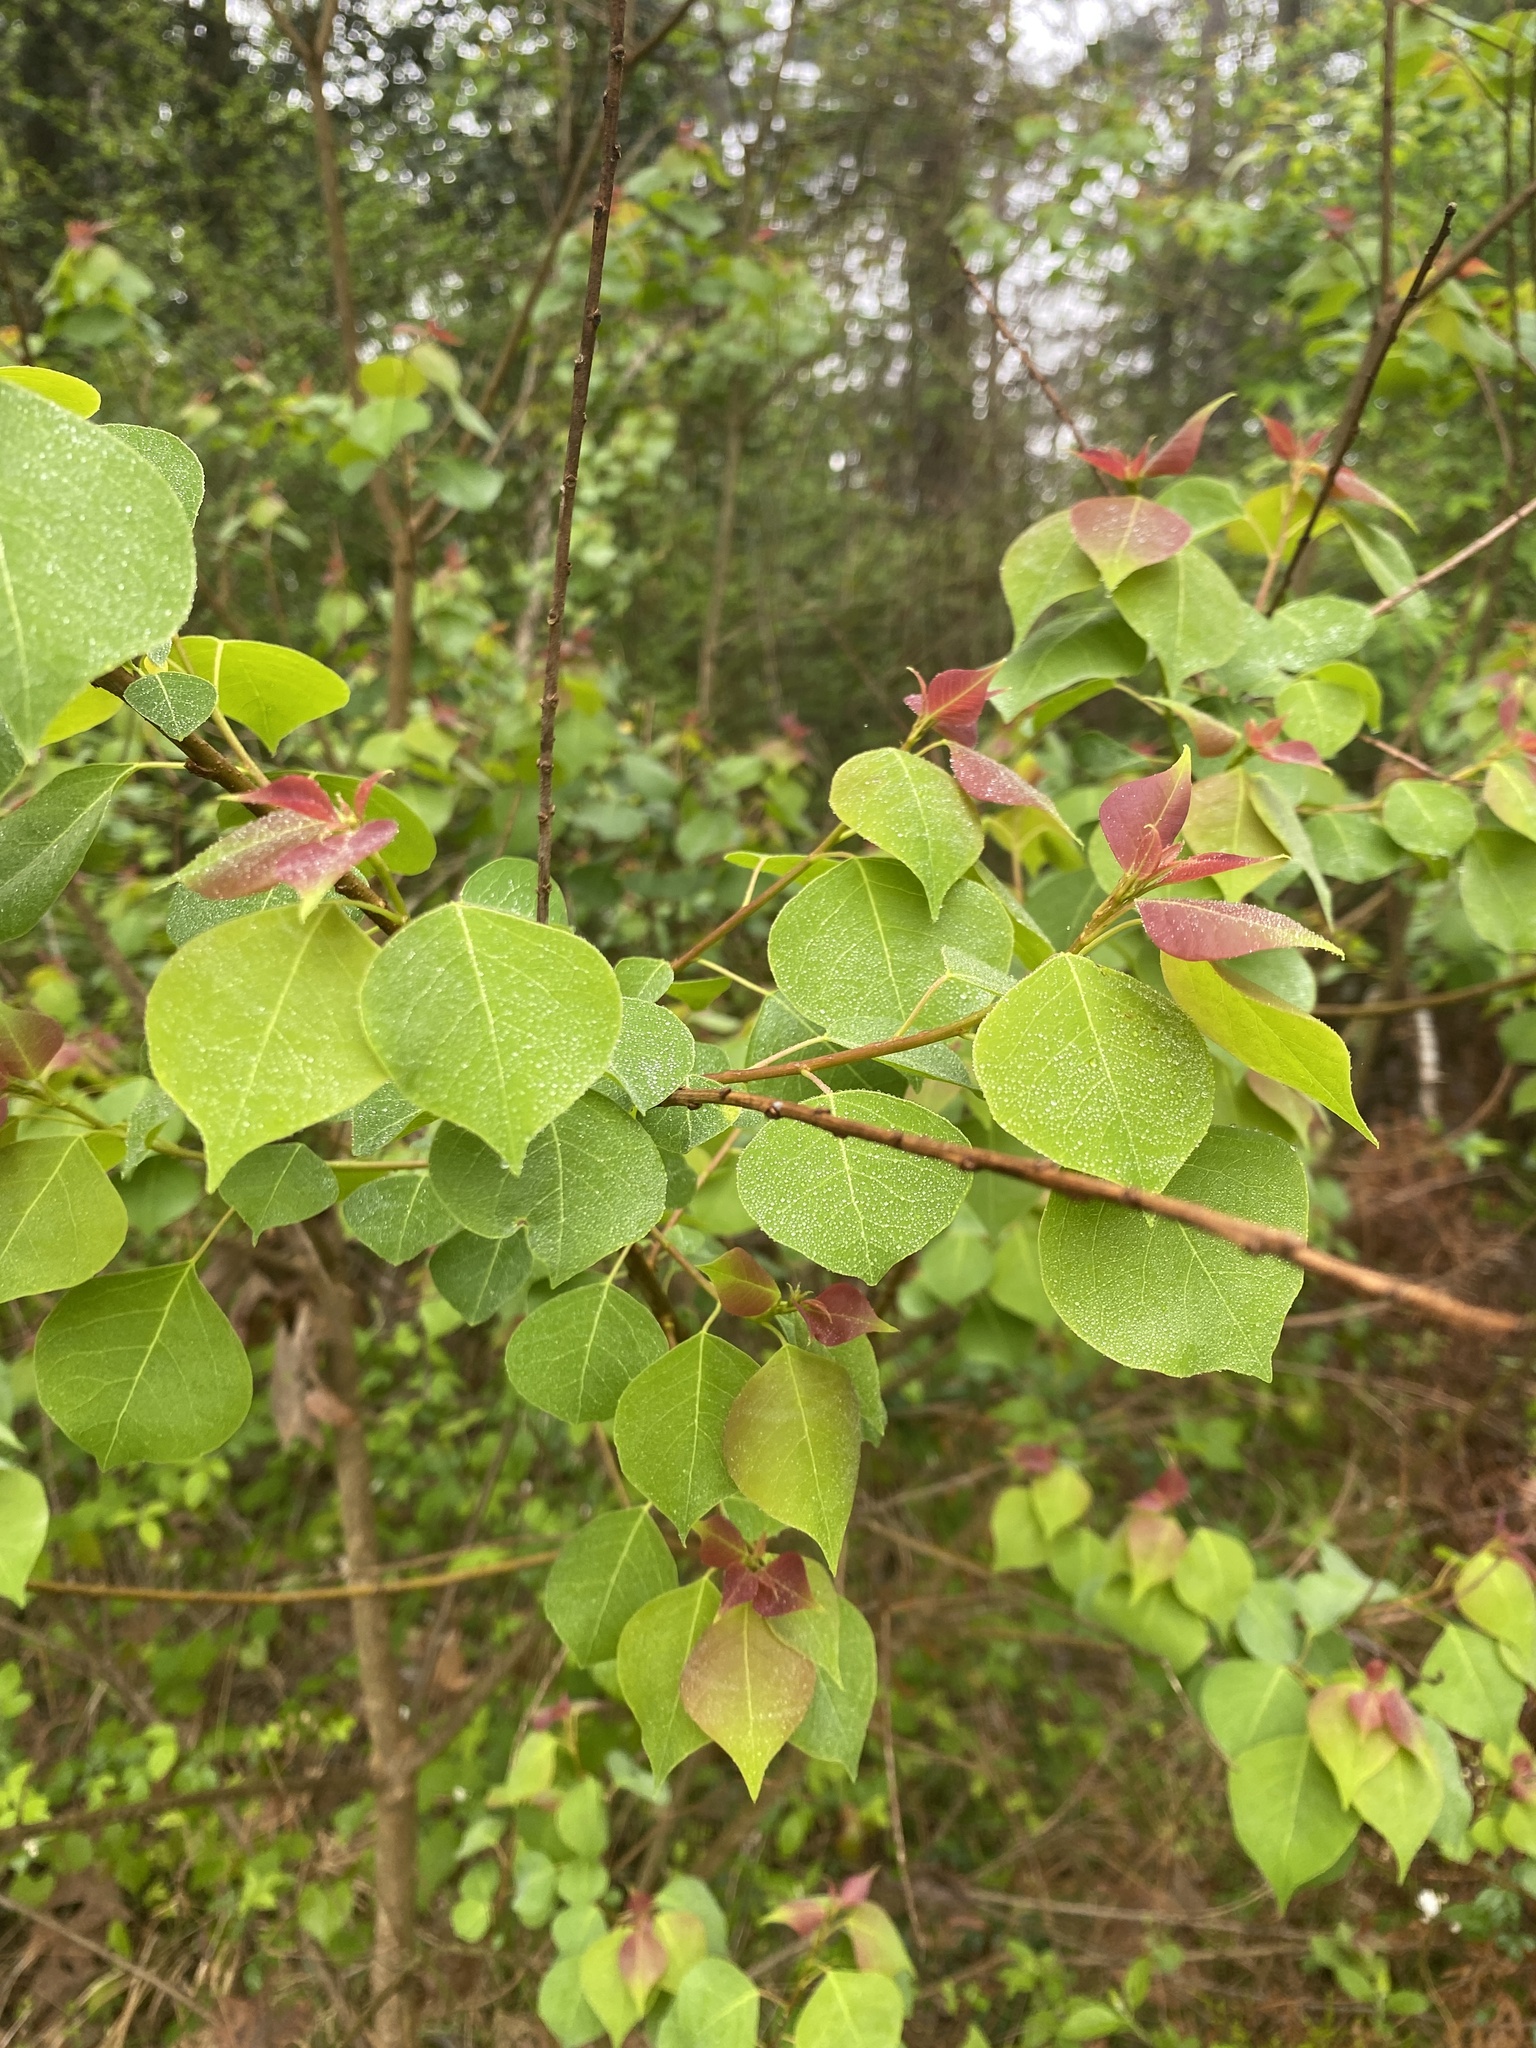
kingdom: Plantae
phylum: Tracheophyta
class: Magnoliopsida
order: Malpighiales
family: Euphorbiaceae
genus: Triadica
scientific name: Triadica sebifera
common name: Chinese tallow
